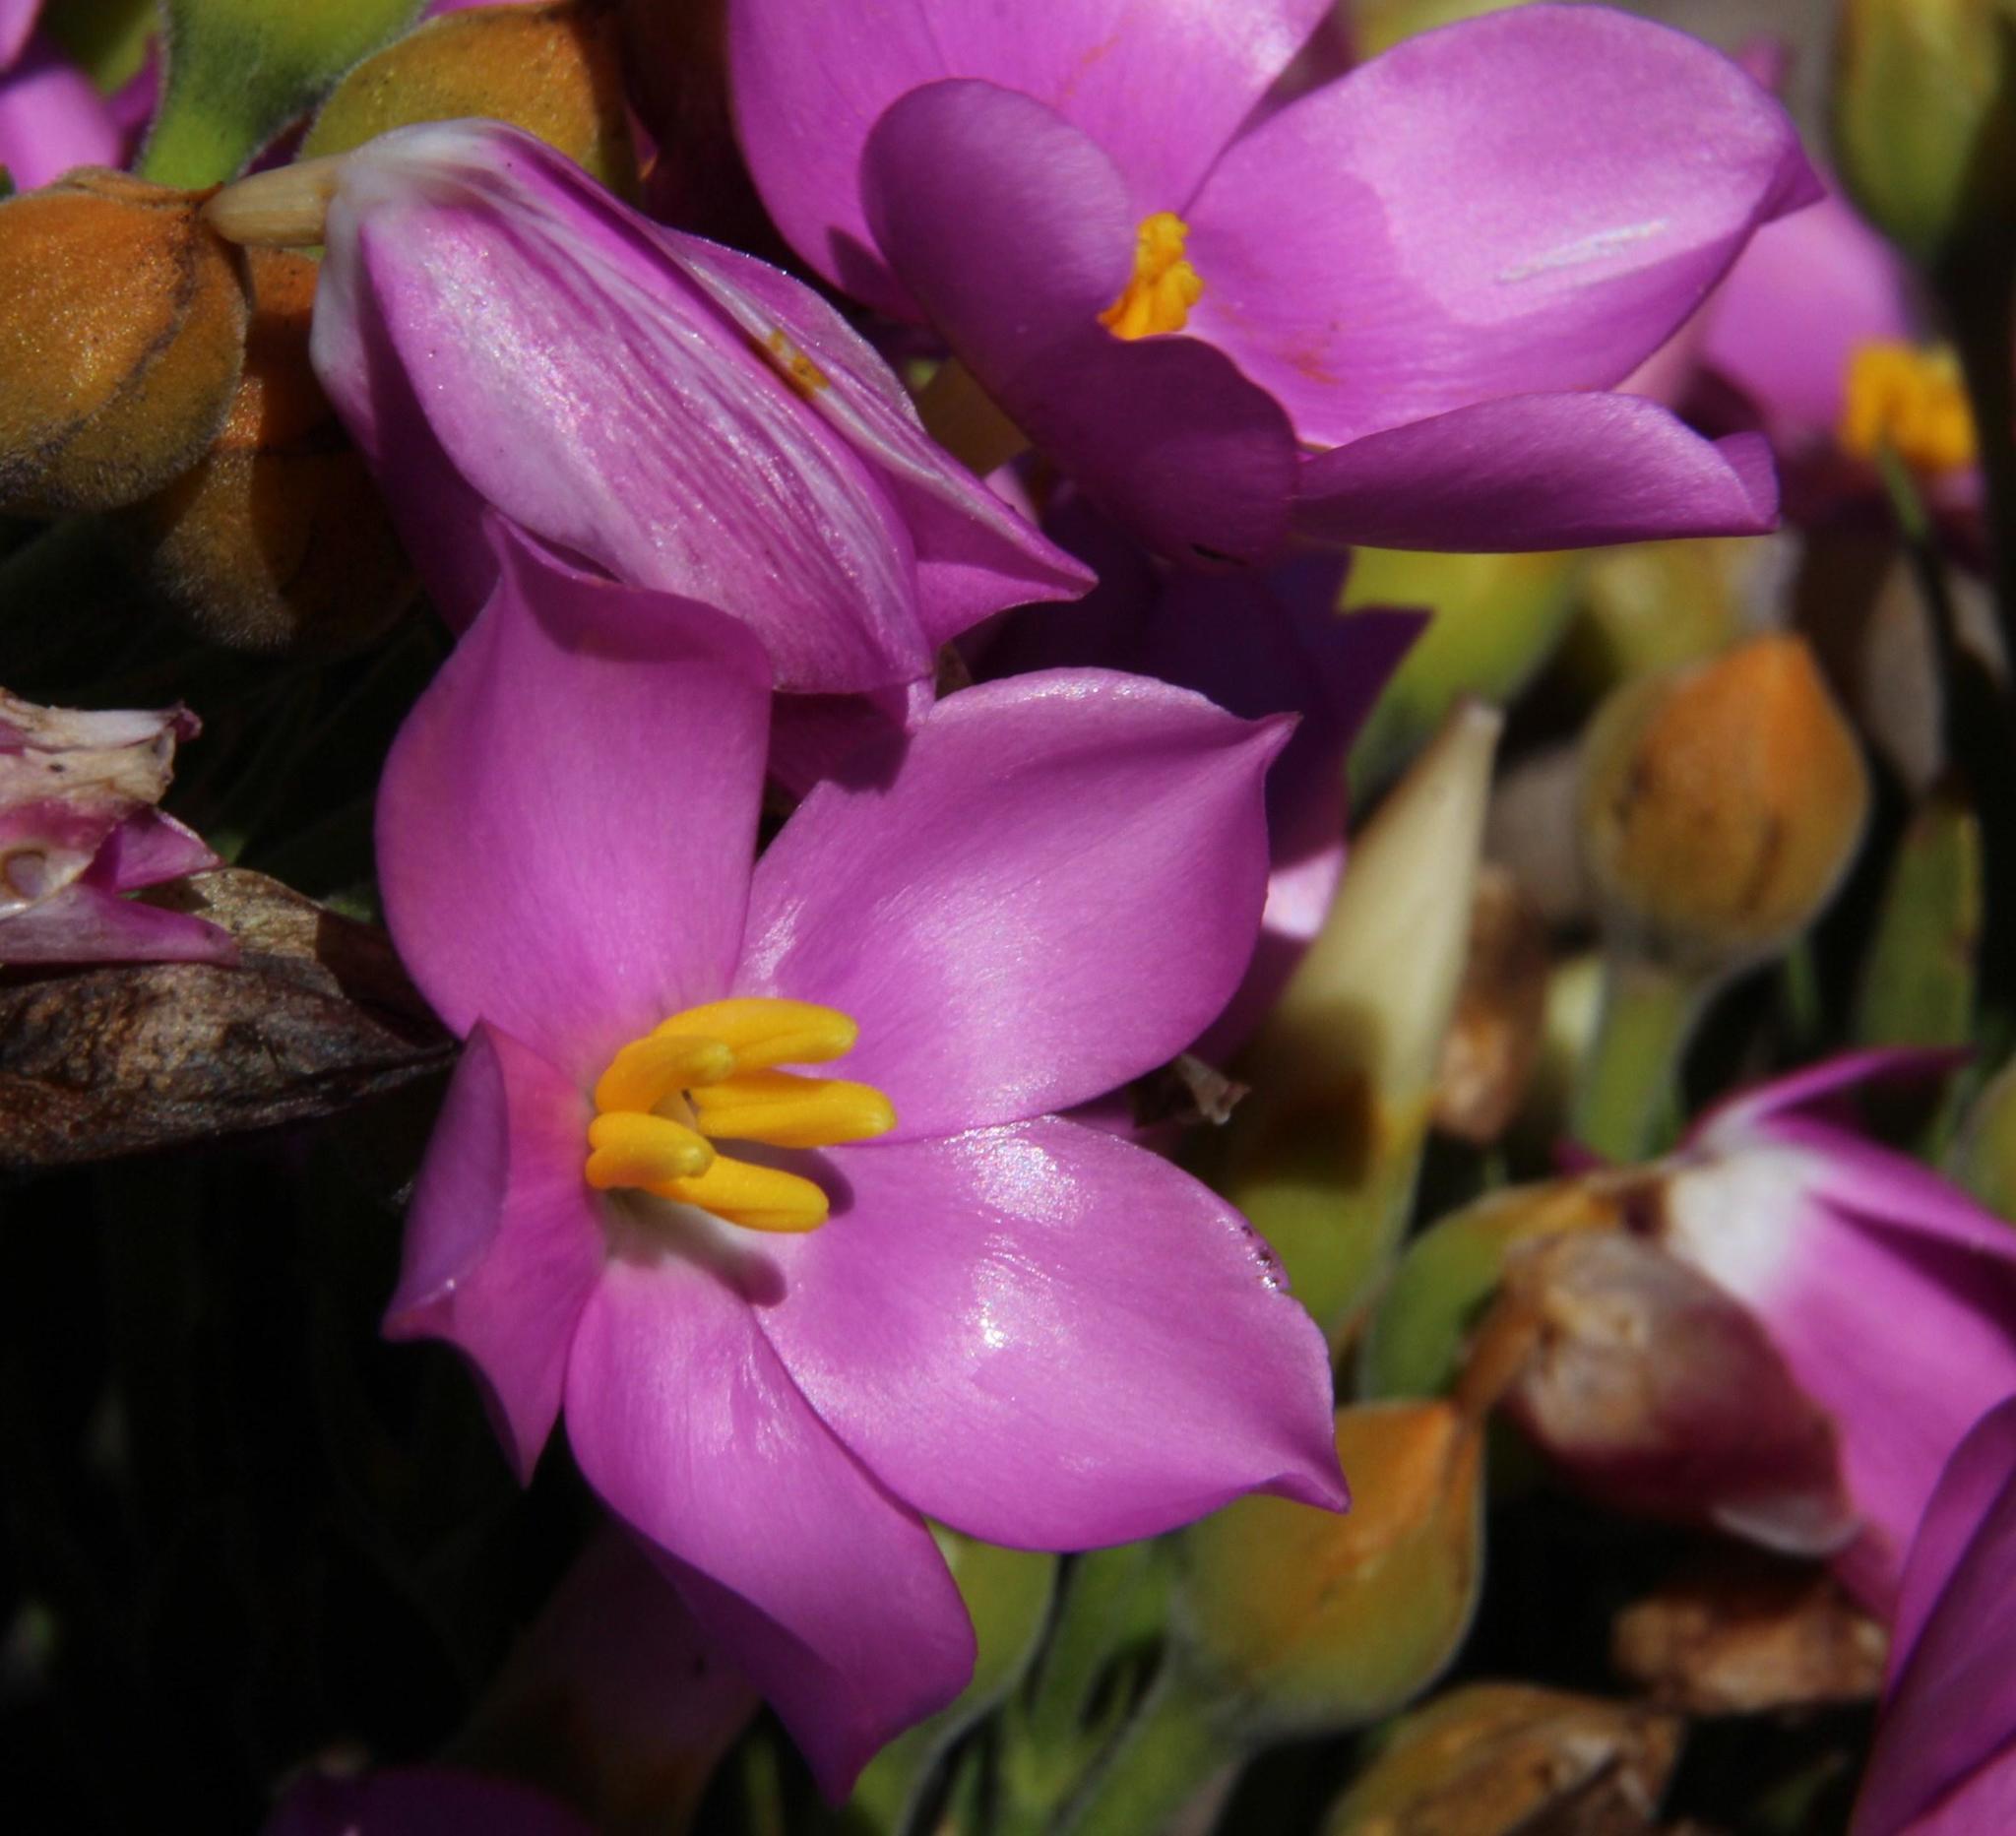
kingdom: Plantae
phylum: Tracheophyta
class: Magnoliopsida
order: Gentianales
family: Gentianaceae
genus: Orphium
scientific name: Orphium frutescens
